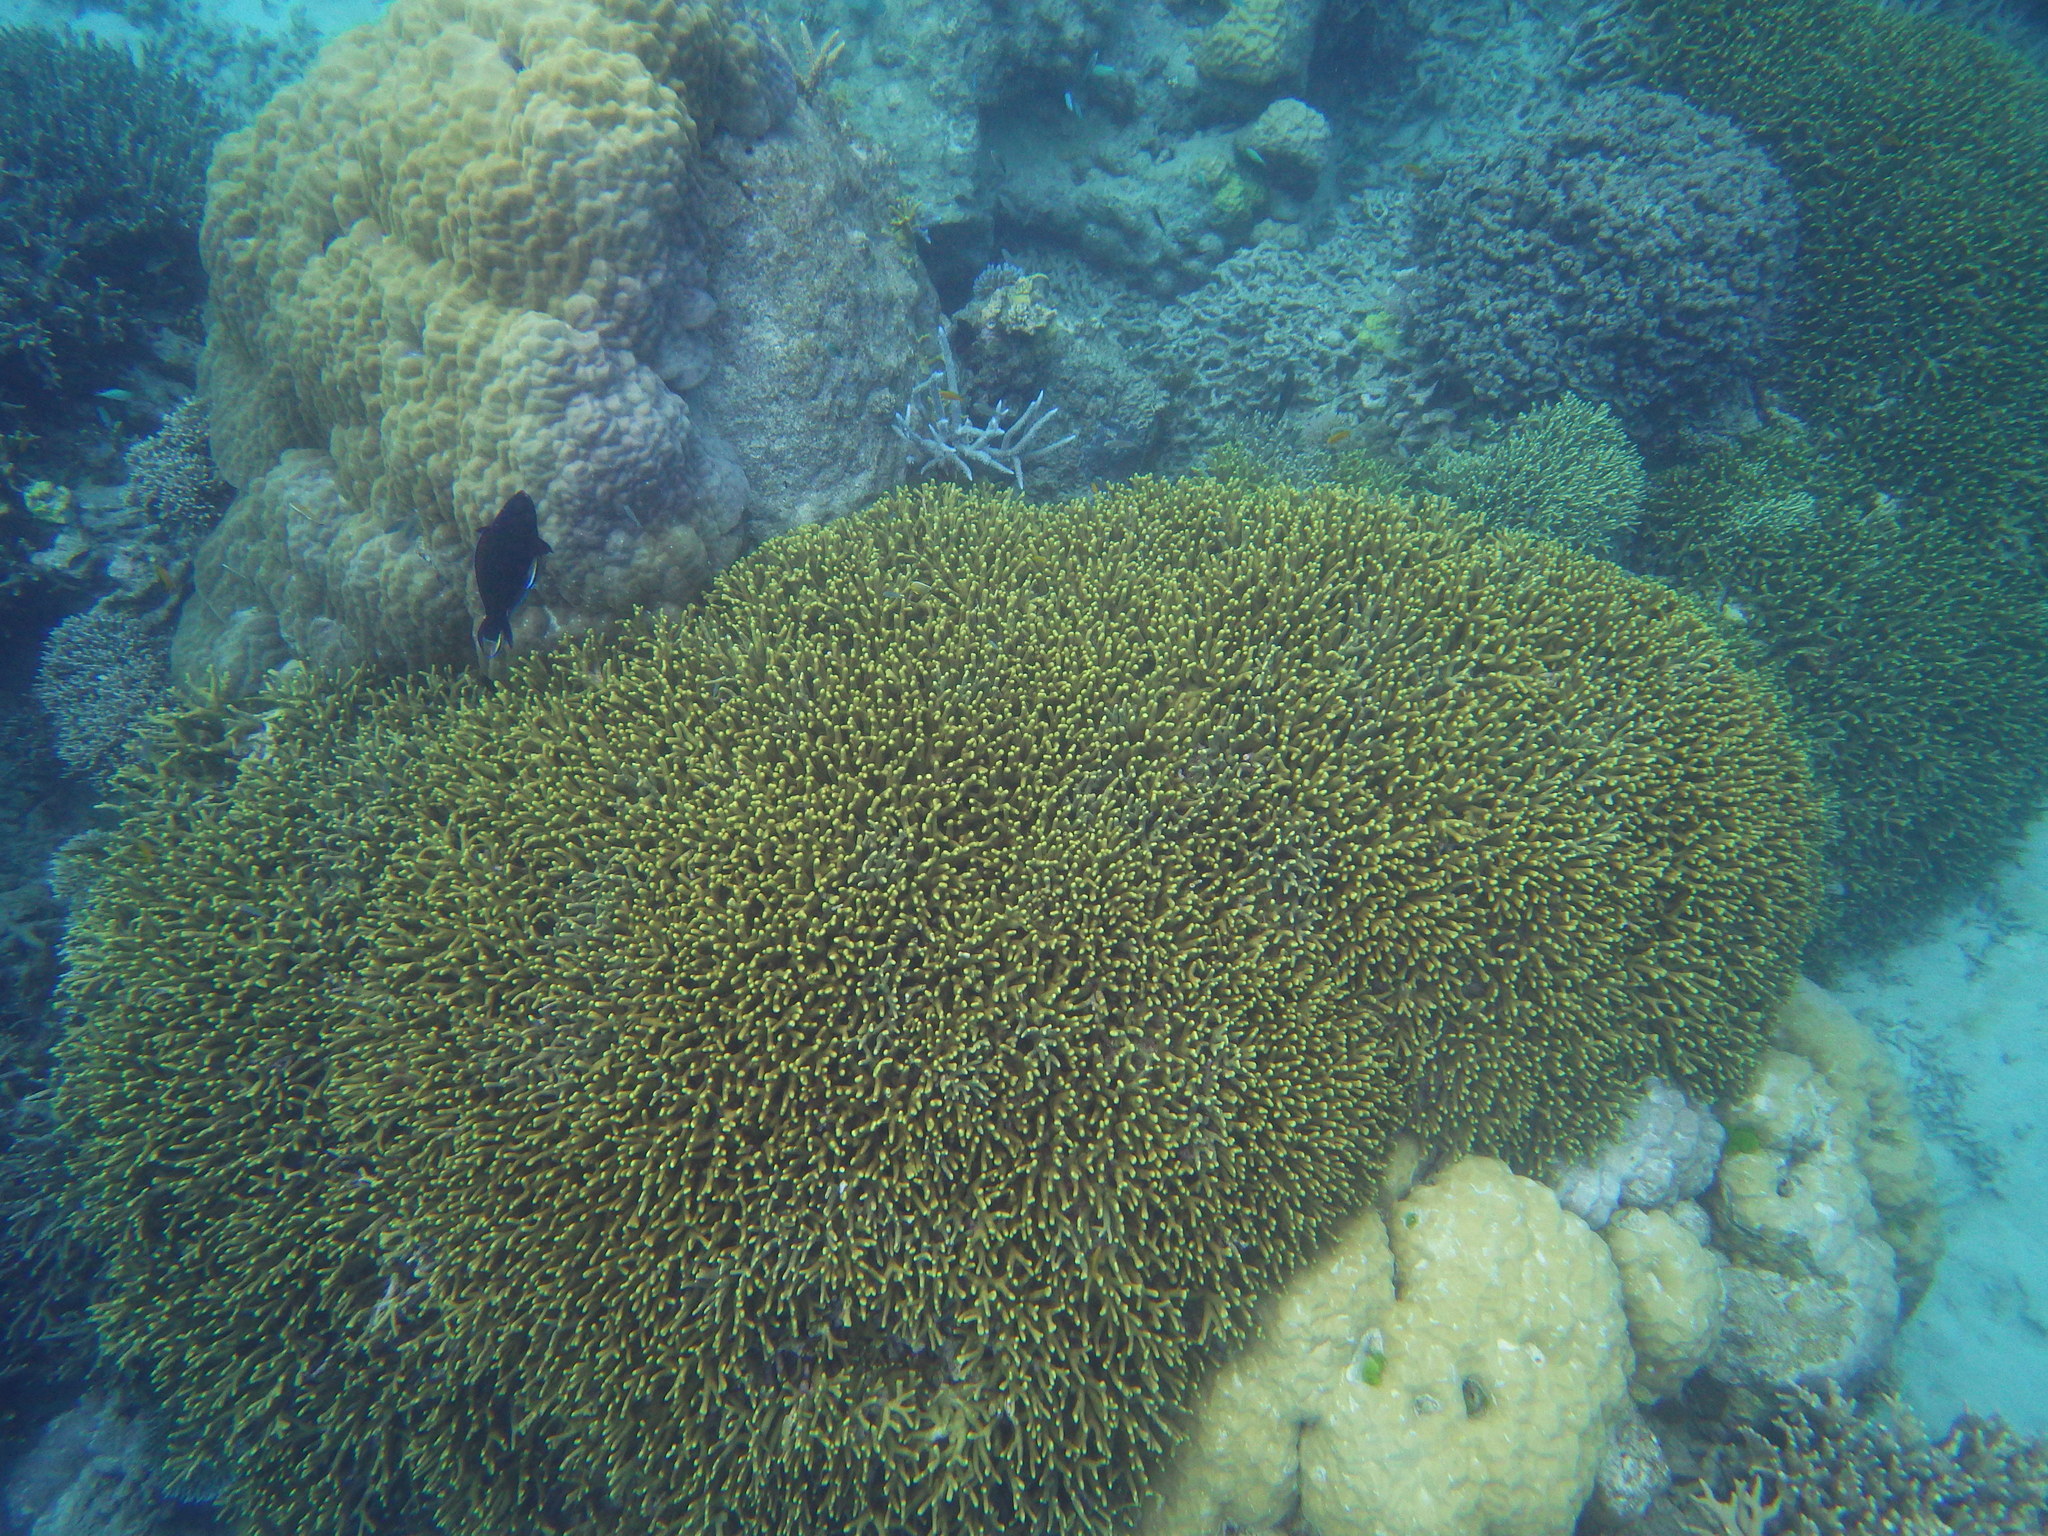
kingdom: Animalia
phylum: Cnidaria
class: Anthozoa
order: Scleractinia
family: Poritidae
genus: Porites
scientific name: Porites cylindrica
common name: Hump coral
